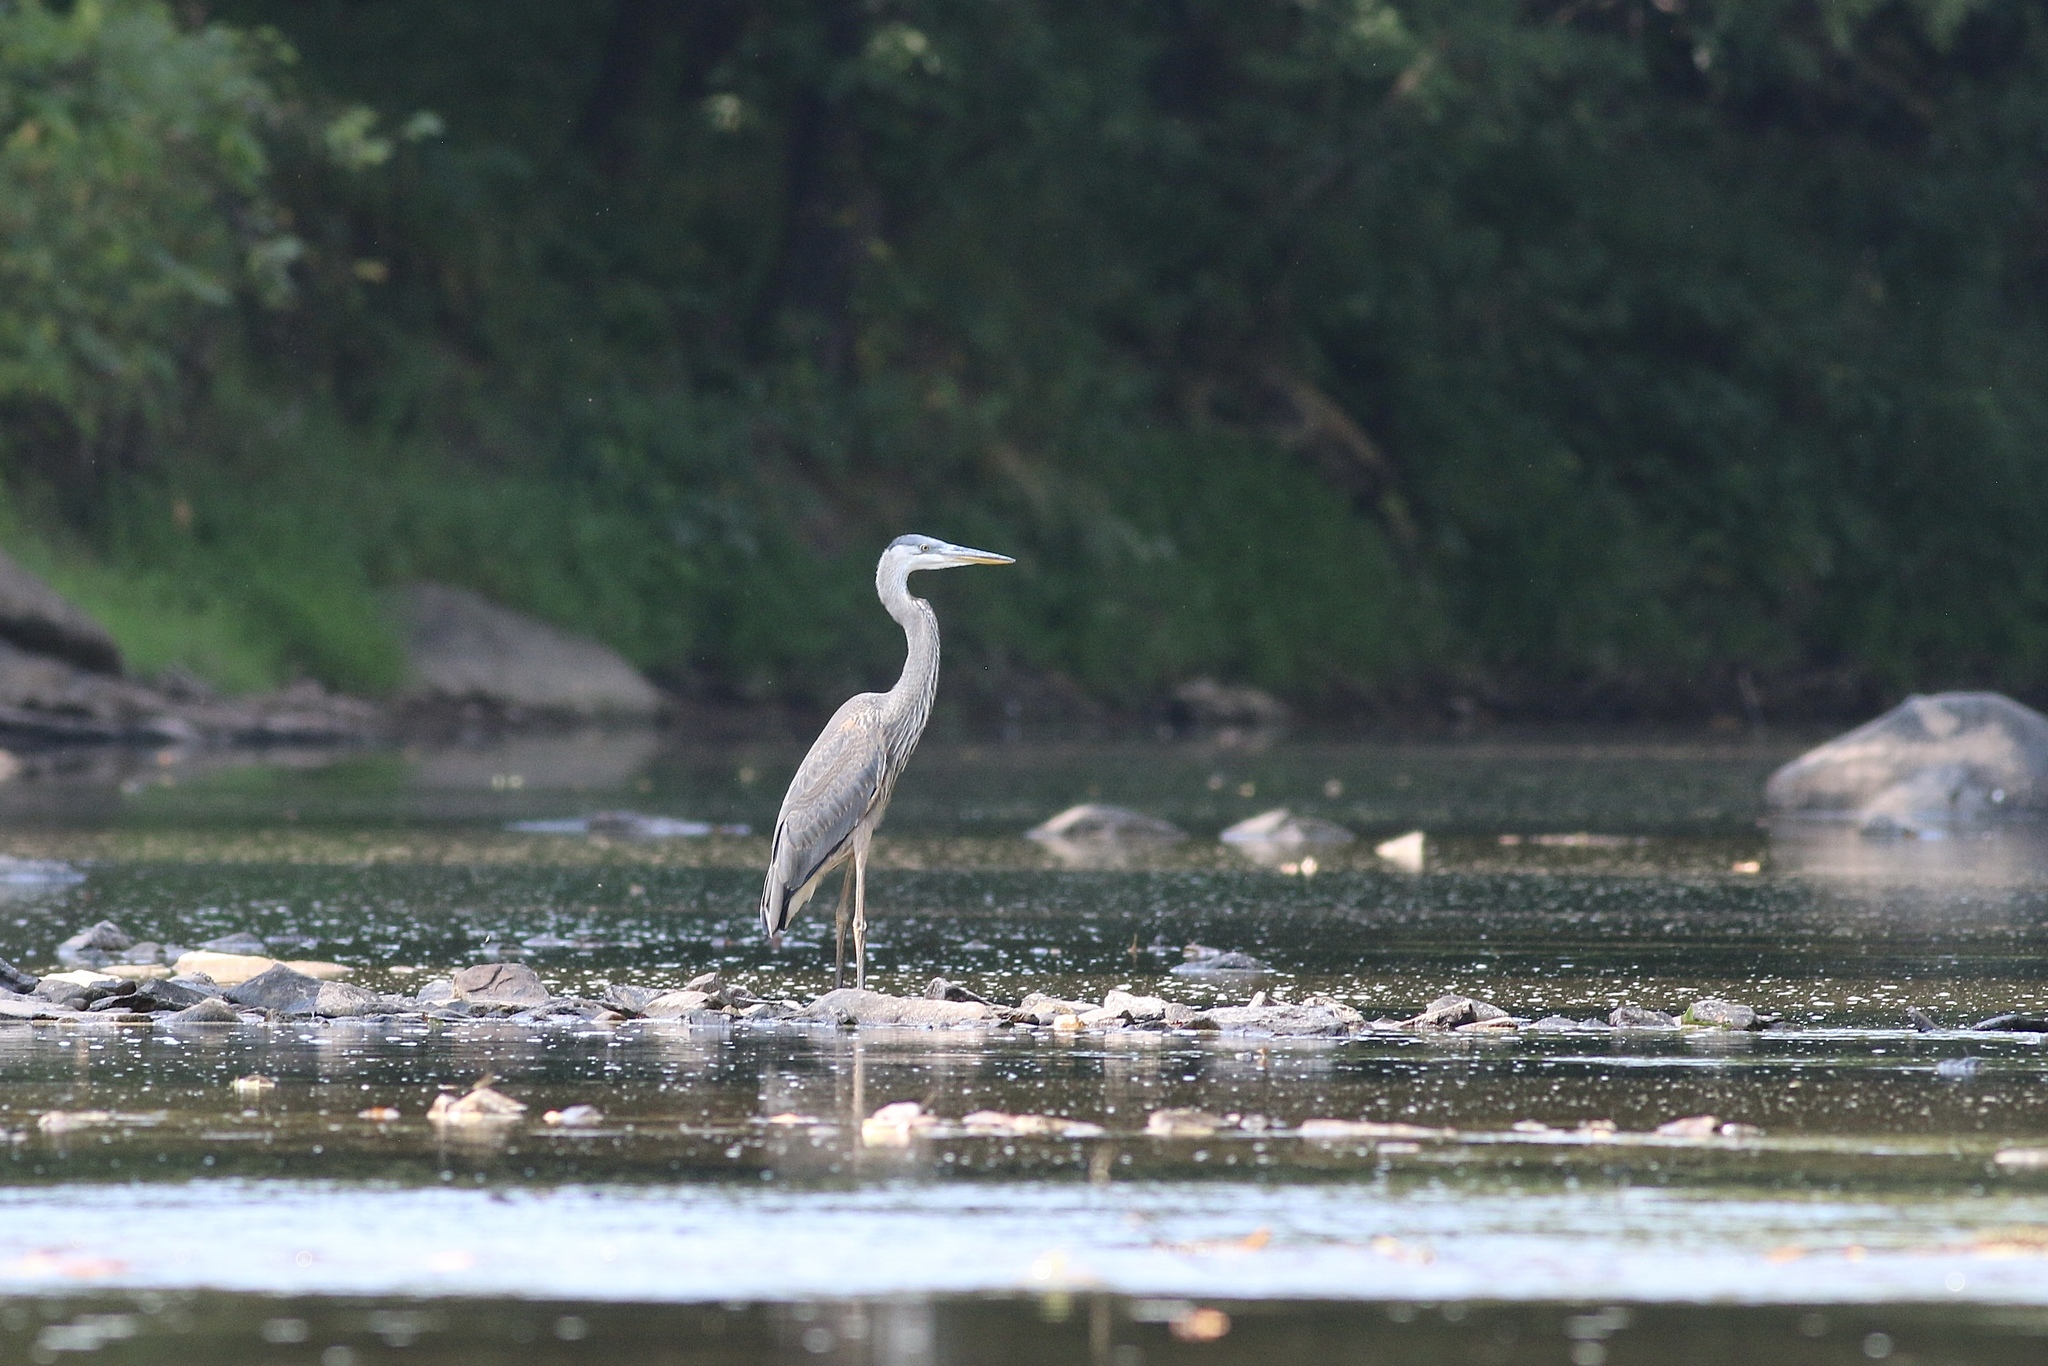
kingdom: Animalia
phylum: Chordata
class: Aves
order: Pelecaniformes
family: Ardeidae
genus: Ardea
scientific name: Ardea herodias
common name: Great blue heron
